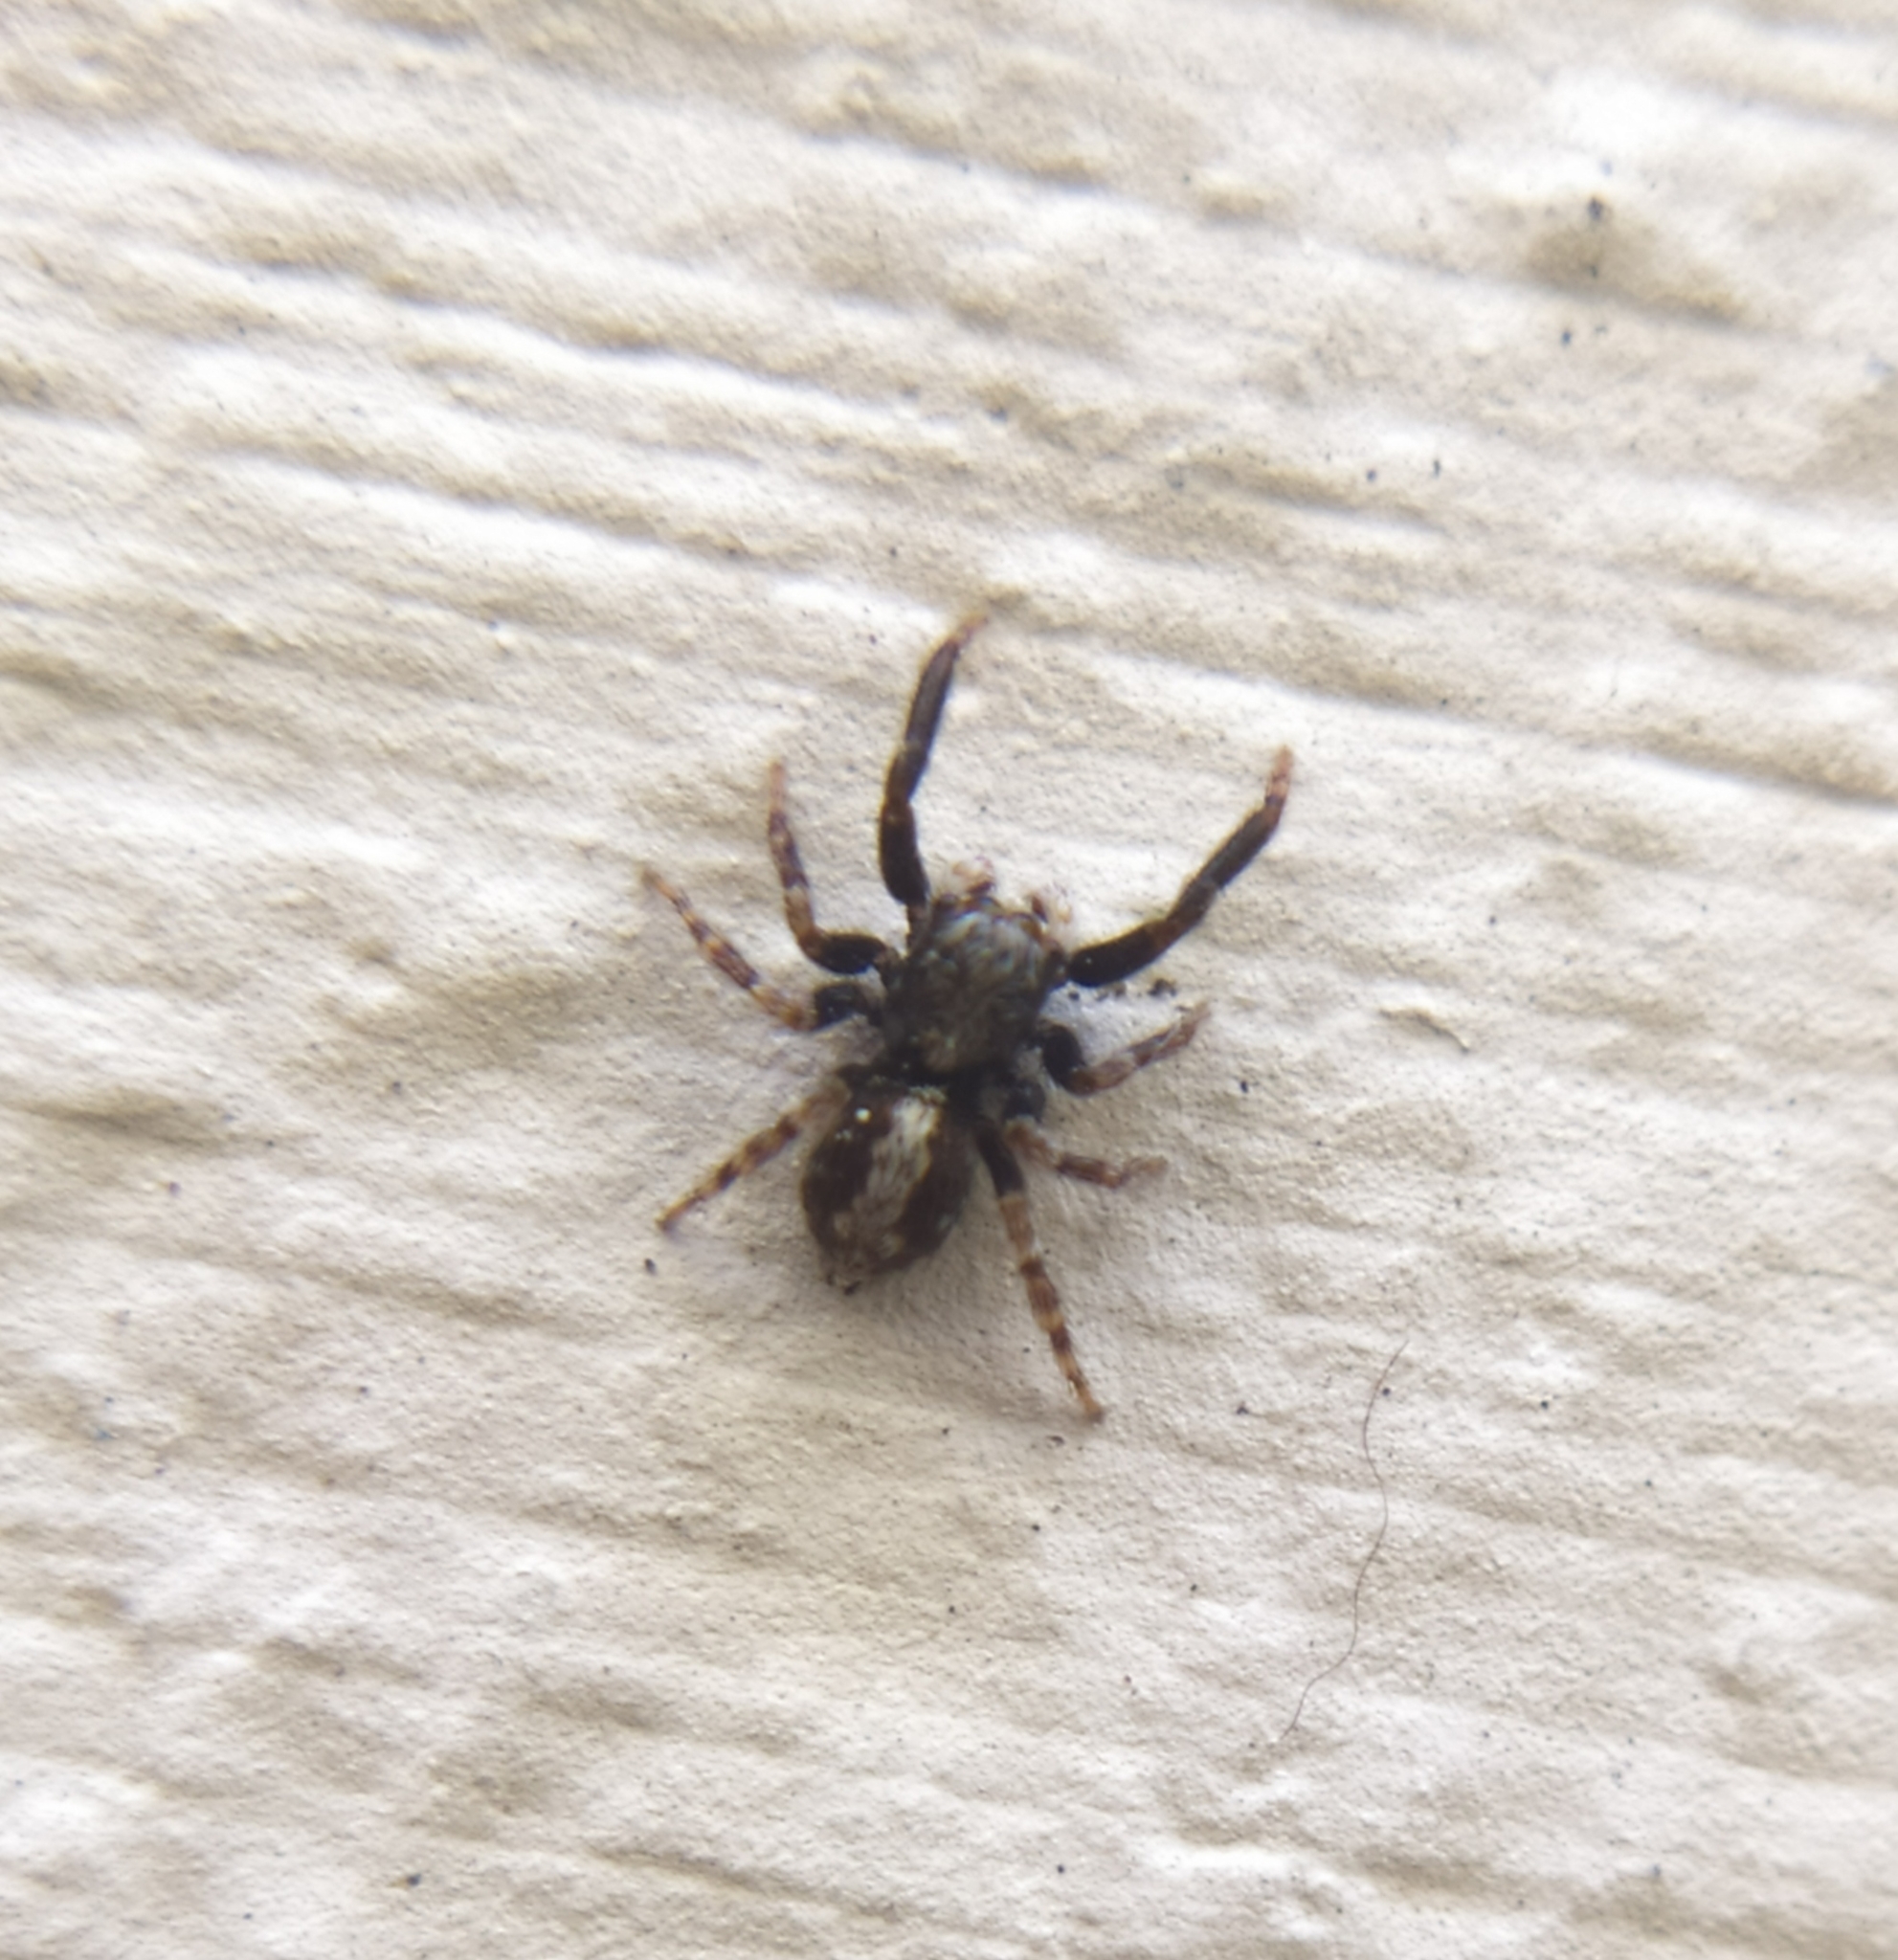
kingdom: Animalia
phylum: Arthropoda
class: Arachnida
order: Araneae
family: Salticidae
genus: Pseudeuophrys
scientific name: Pseudeuophrys lanigera
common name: Jumping spider
